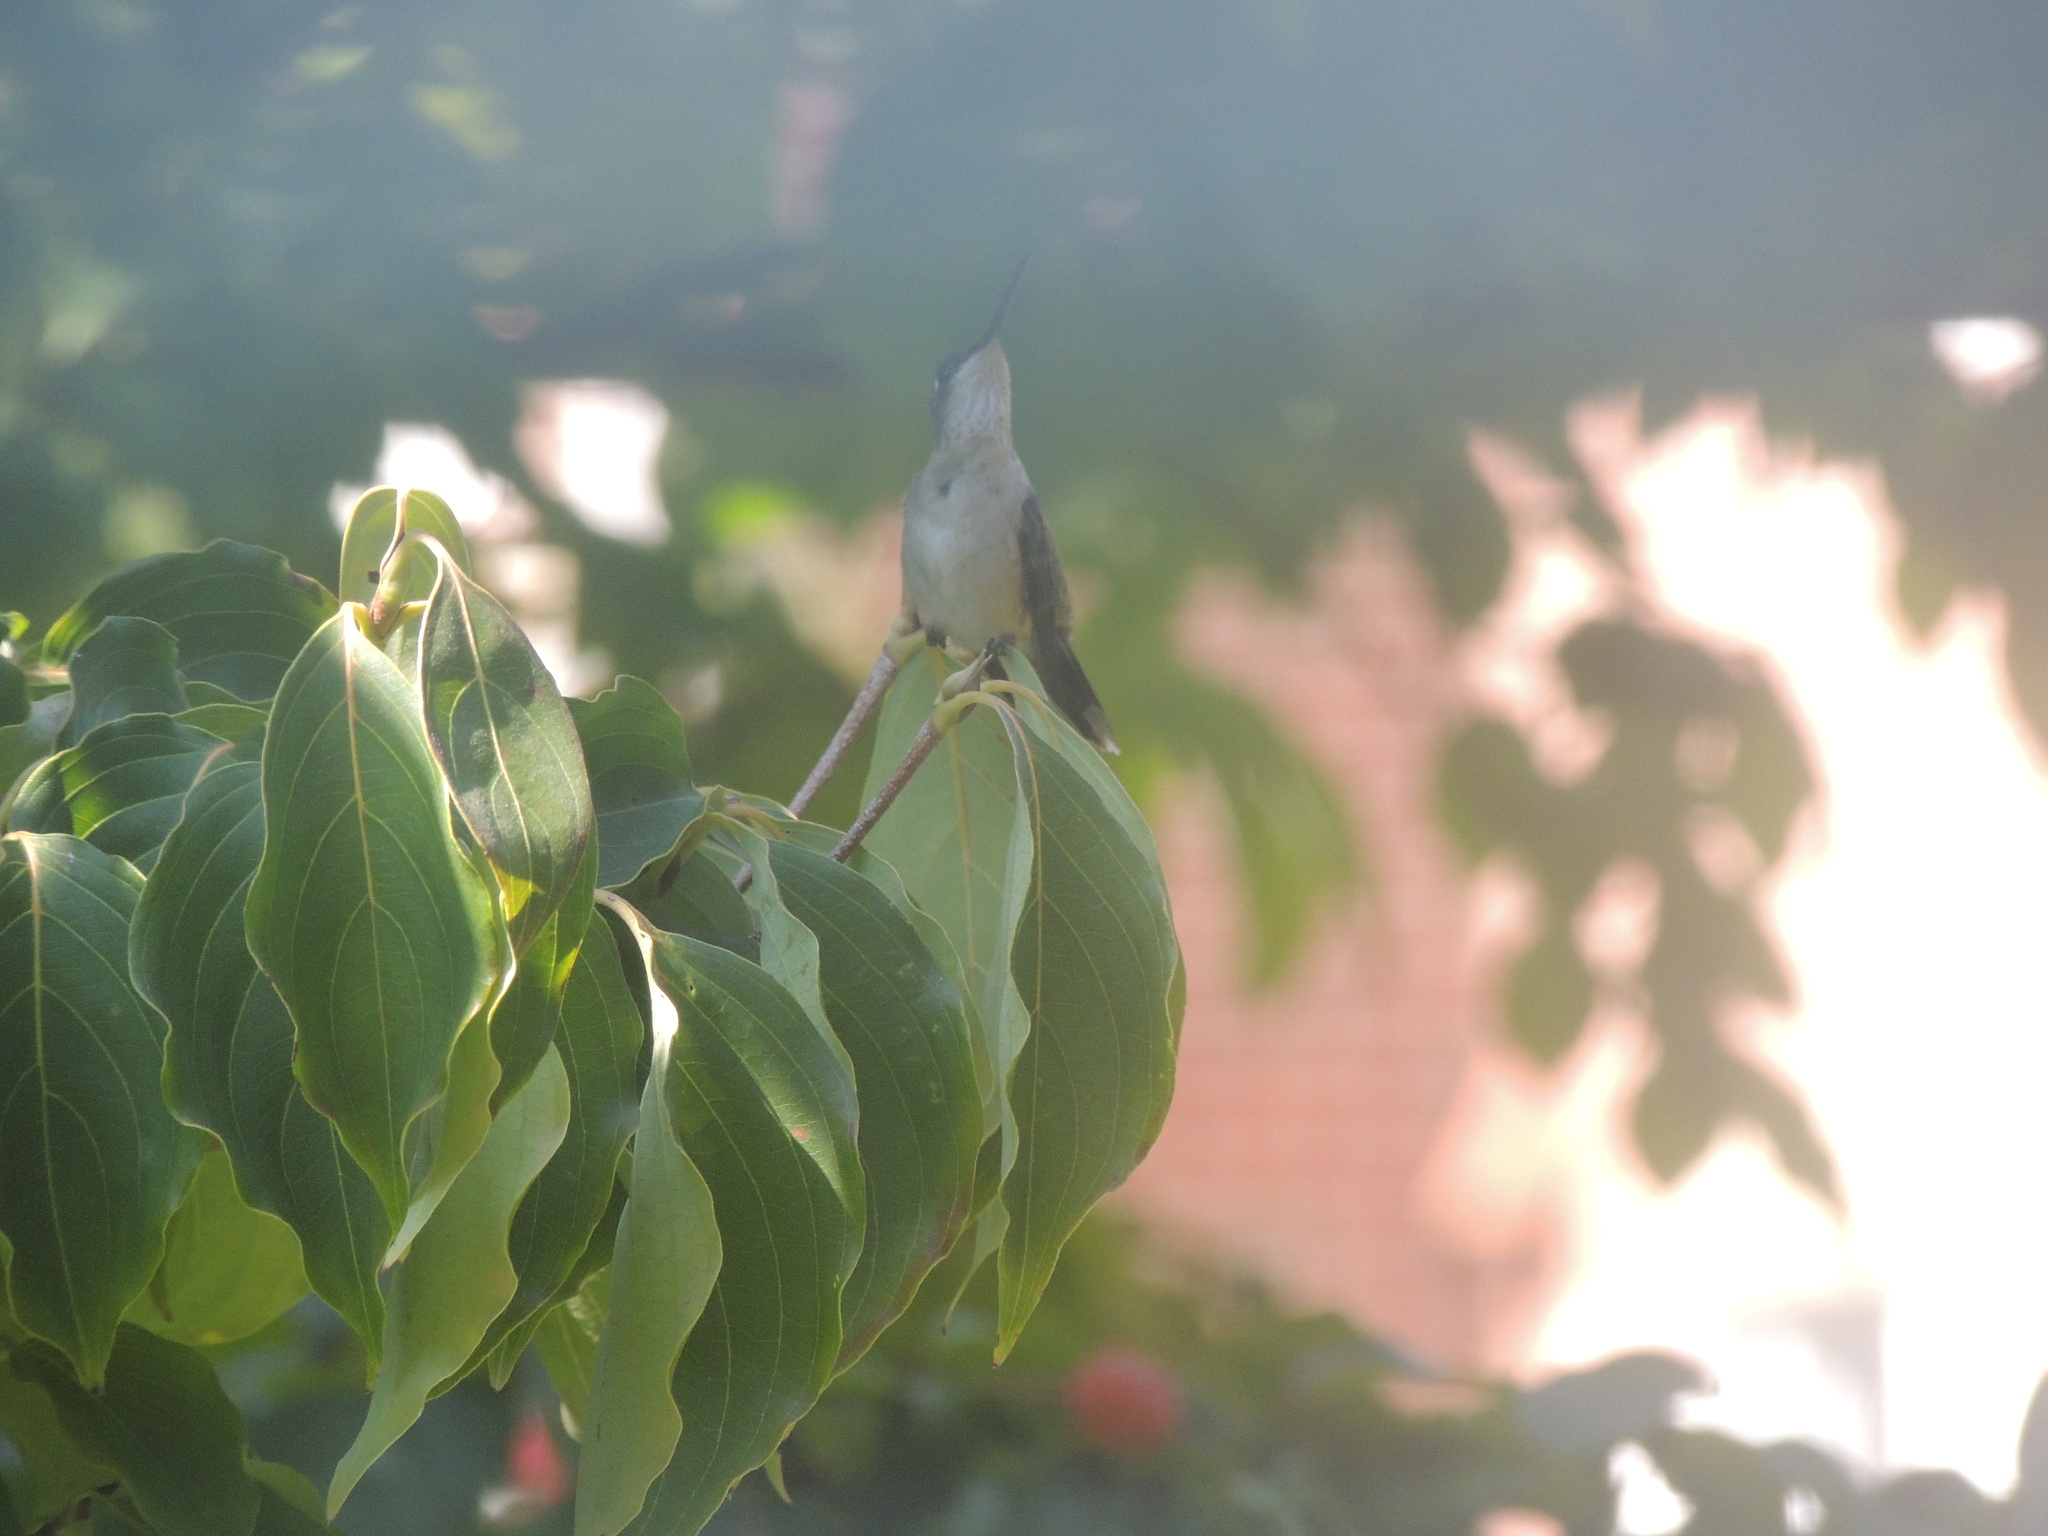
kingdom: Animalia
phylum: Chordata
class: Aves
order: Apodiformes
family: Trochilidae
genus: Archilochus
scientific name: Archilochus colubris
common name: Ruby-throated hummingbird
